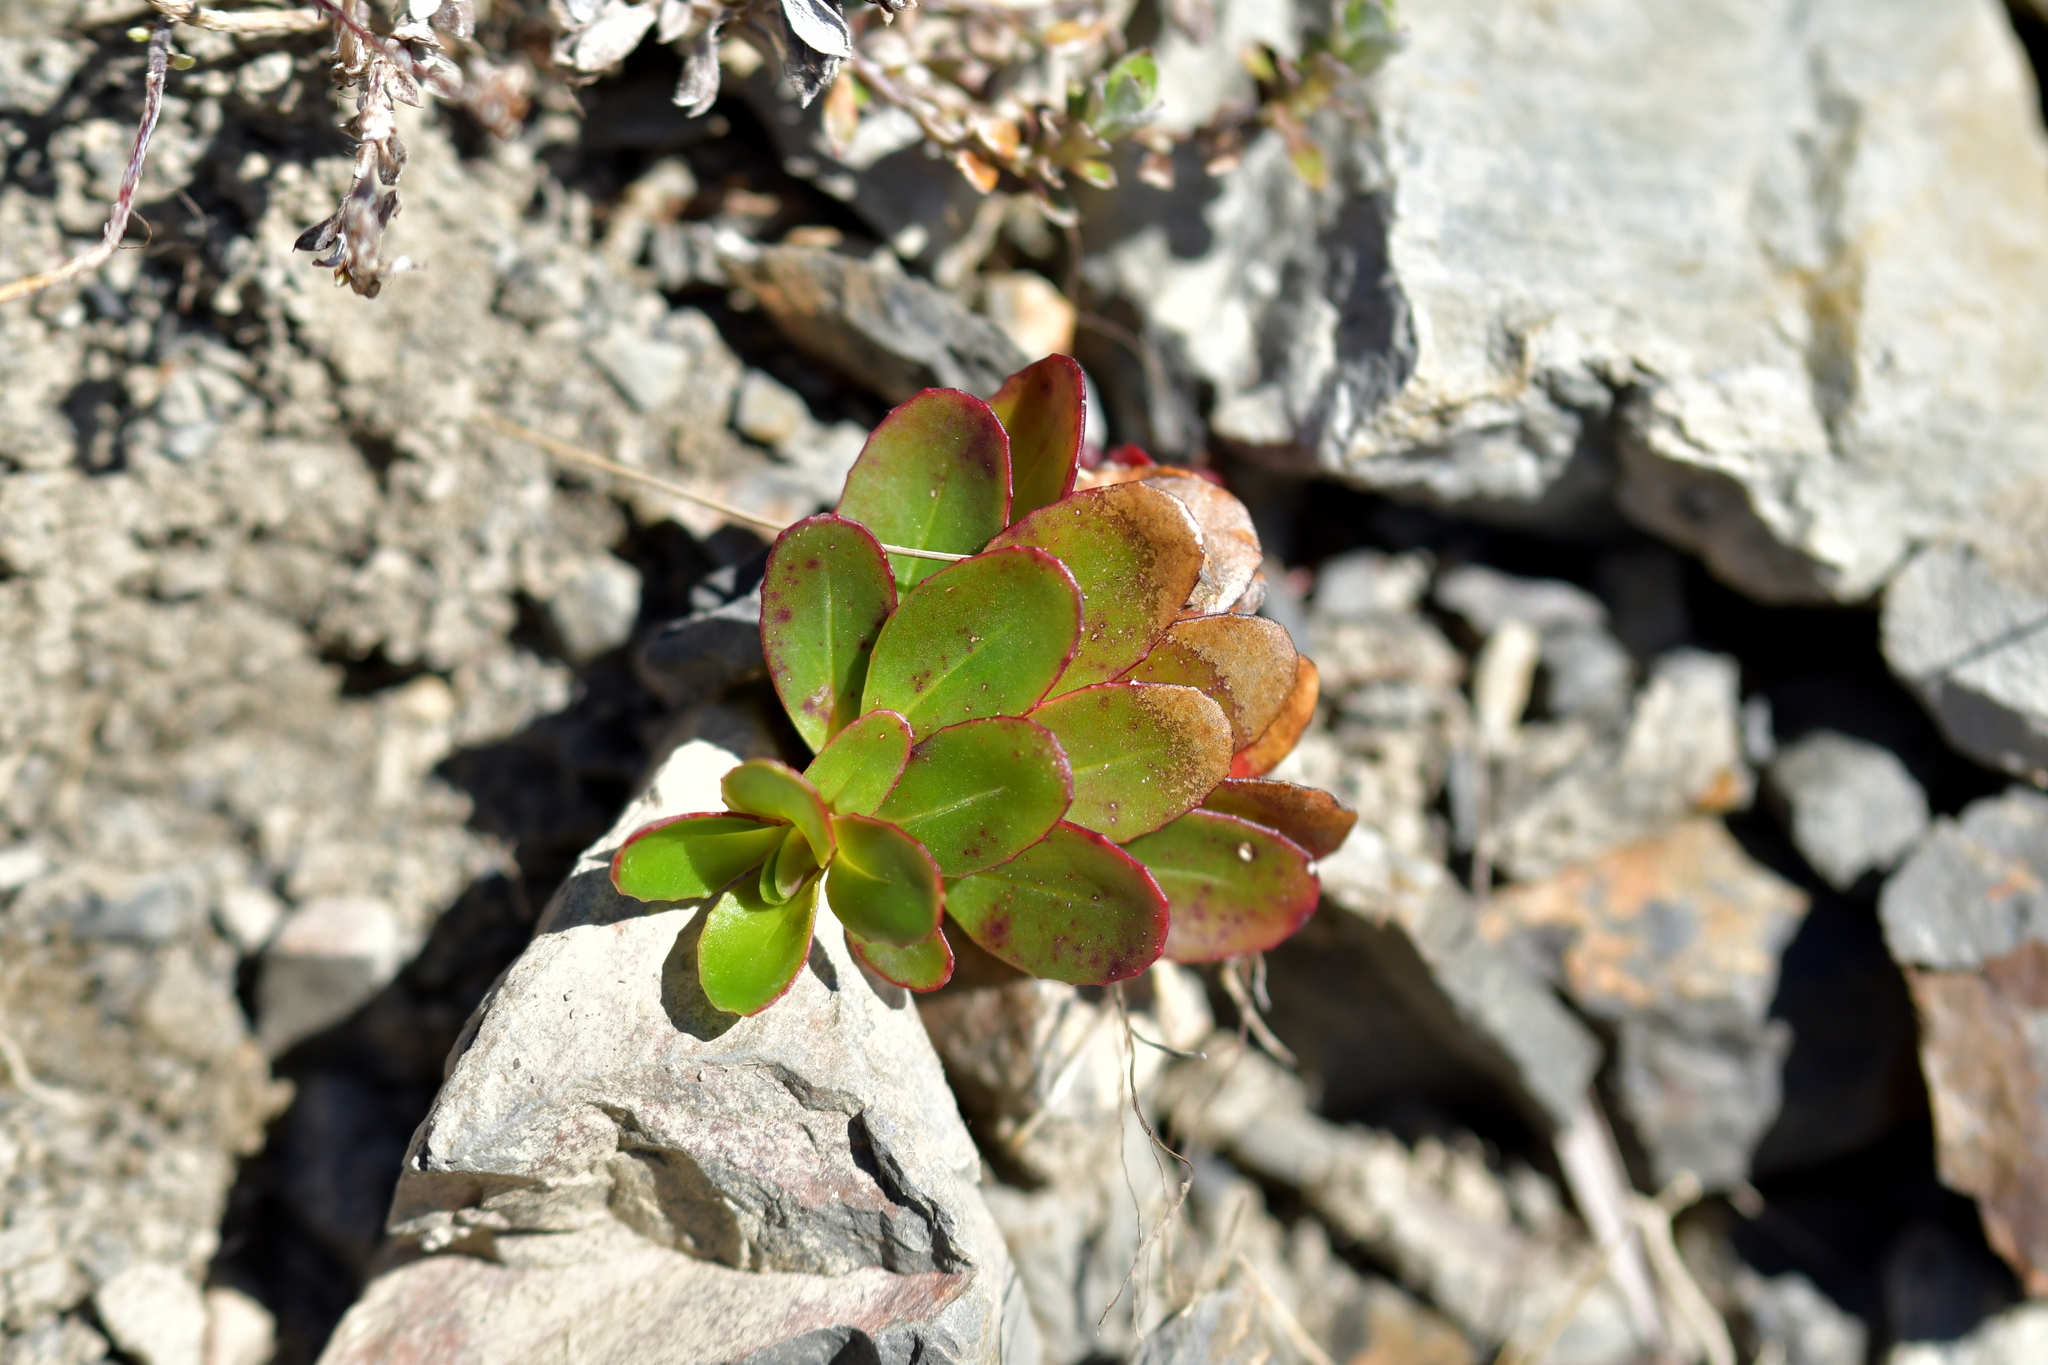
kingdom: Plantae
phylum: Tracheophyta
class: Magnoliopsida
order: Myrtales
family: Onagraceae
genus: Epilobium
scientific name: Epilobium crassum
